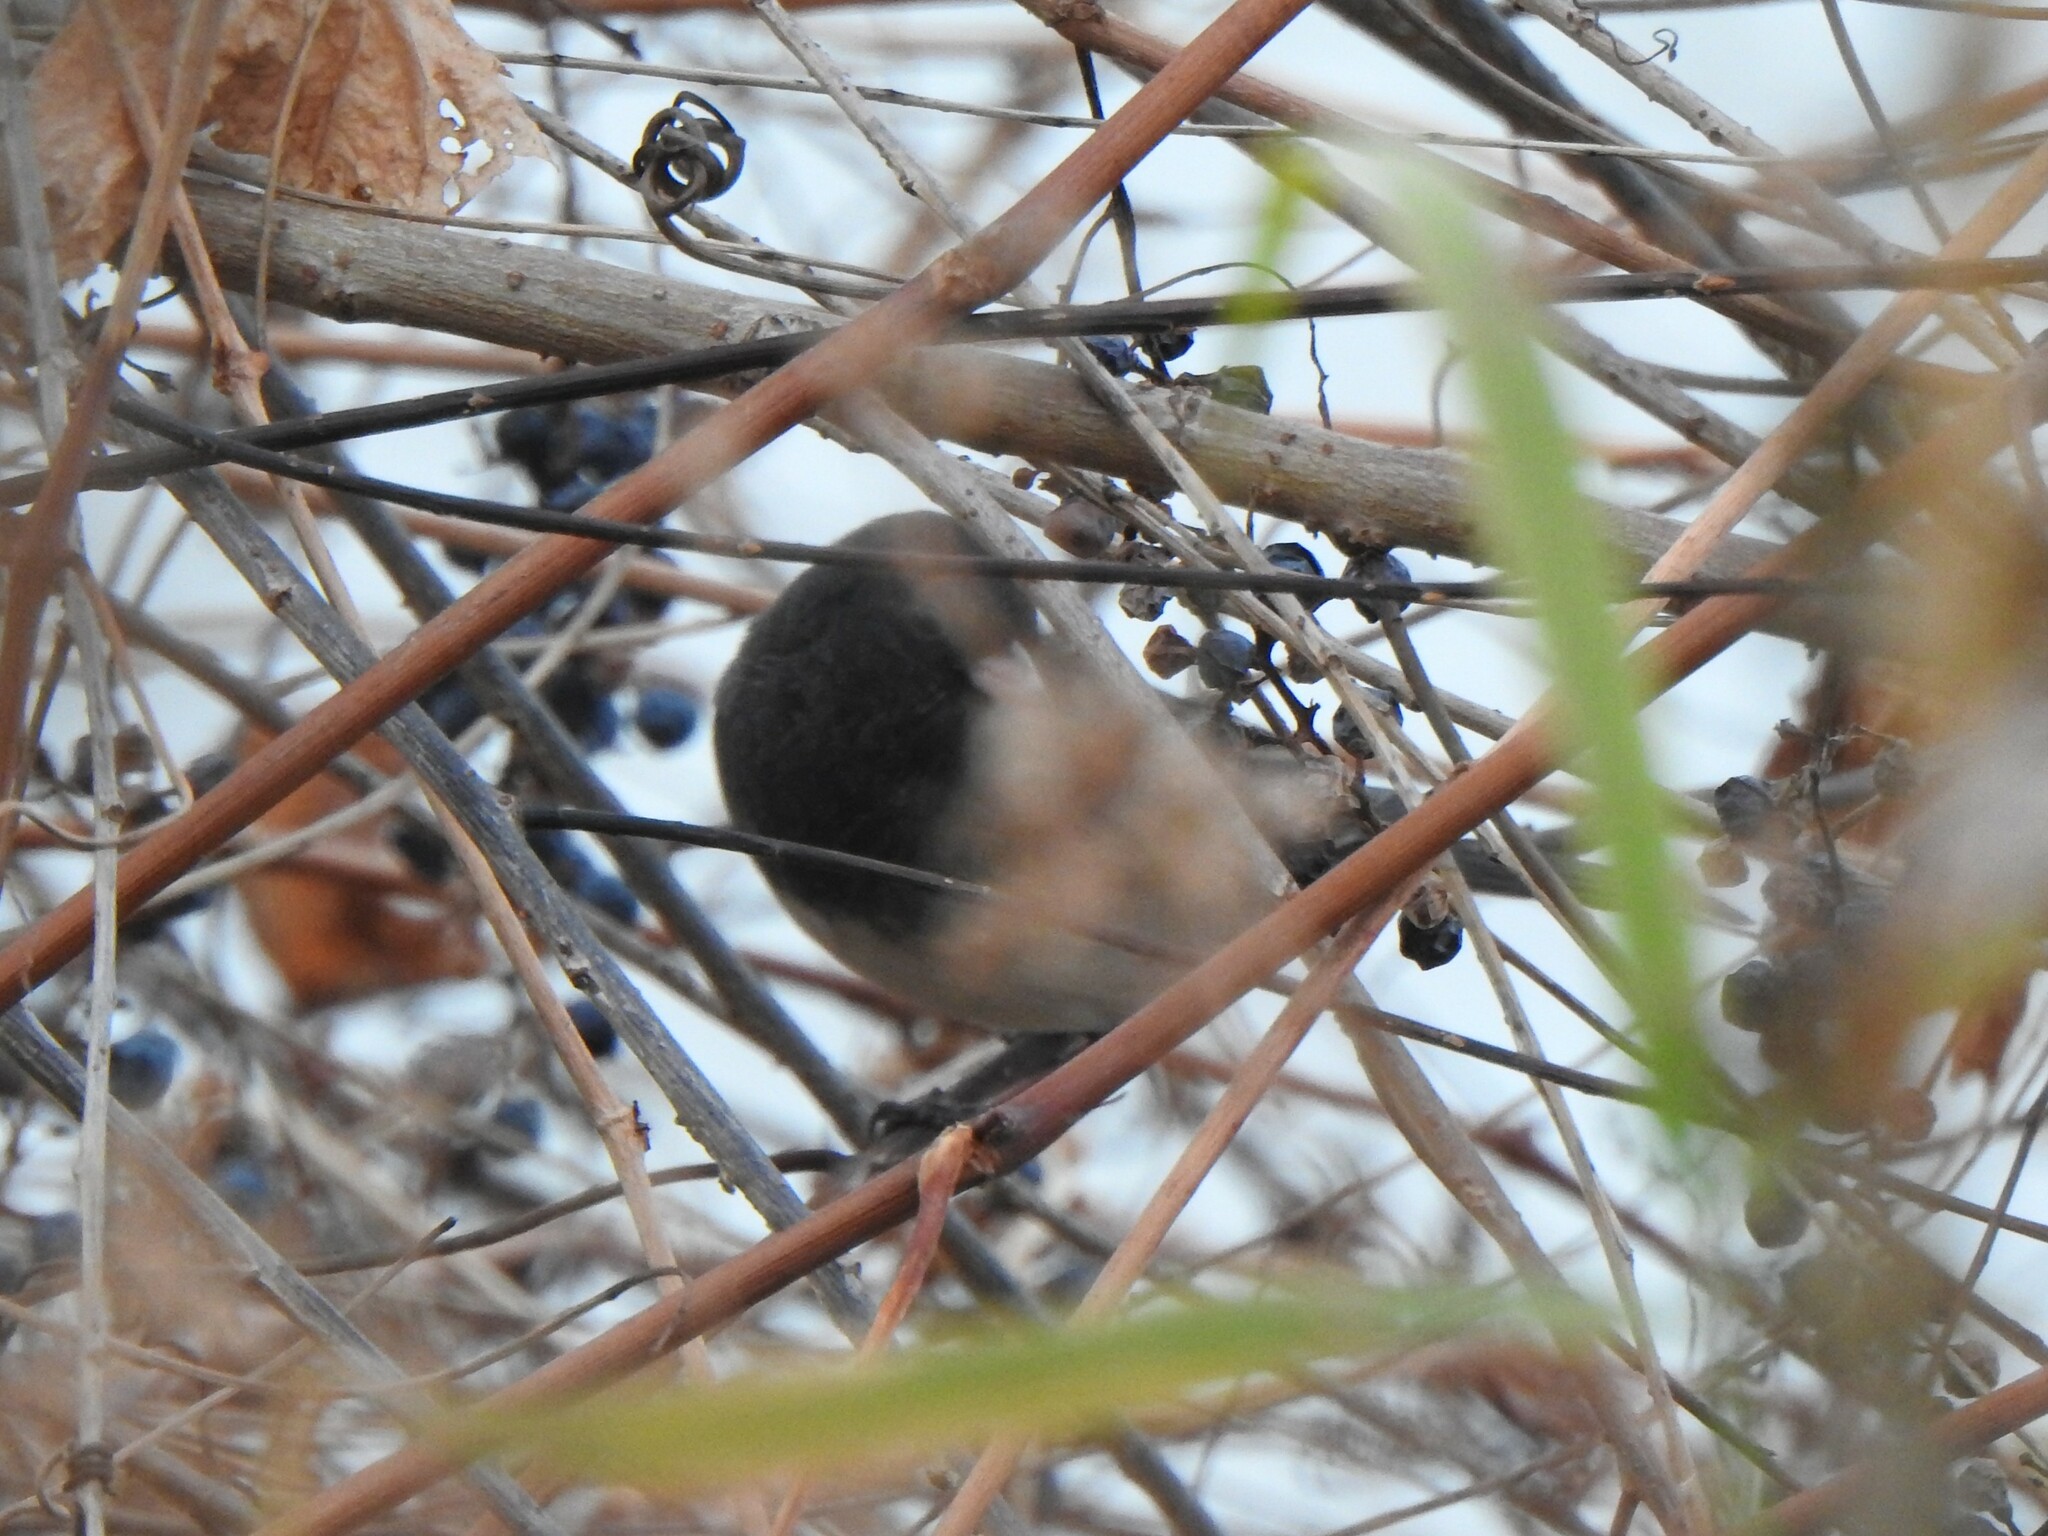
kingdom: Animalia
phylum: Chordata
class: Aves
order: Passeriformes
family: Passerellidae
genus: Junco
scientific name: Junco hyemalis
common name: Dark-eyed junco
